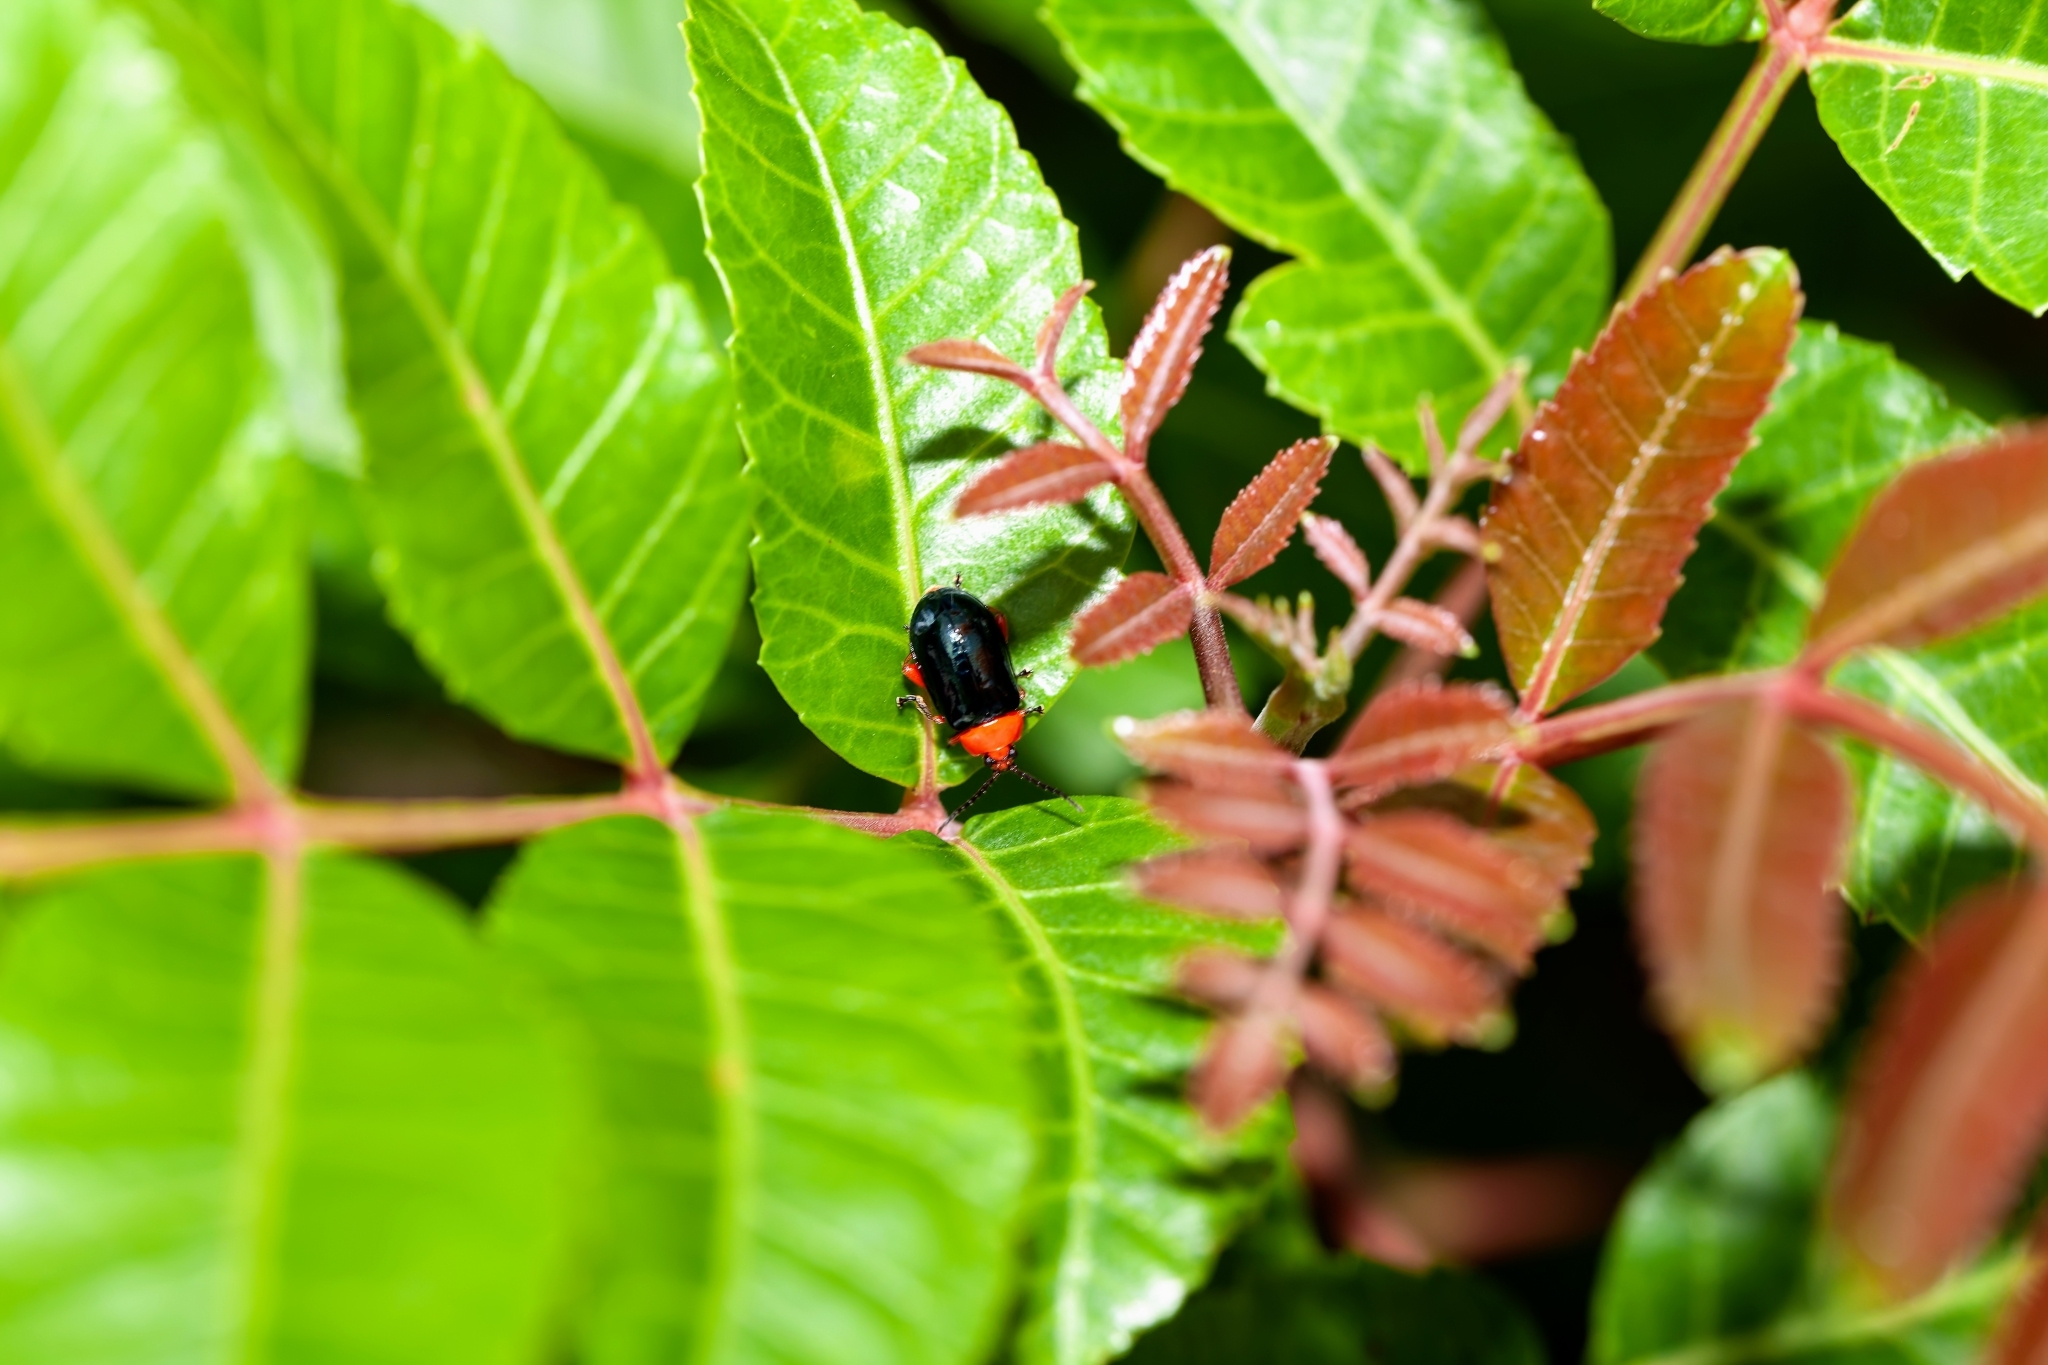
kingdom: Animalia
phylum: Arthropoda
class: Insecta
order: Coleoptera
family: Chrysomelidae
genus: Asphaera
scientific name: Asphaera lustrans
